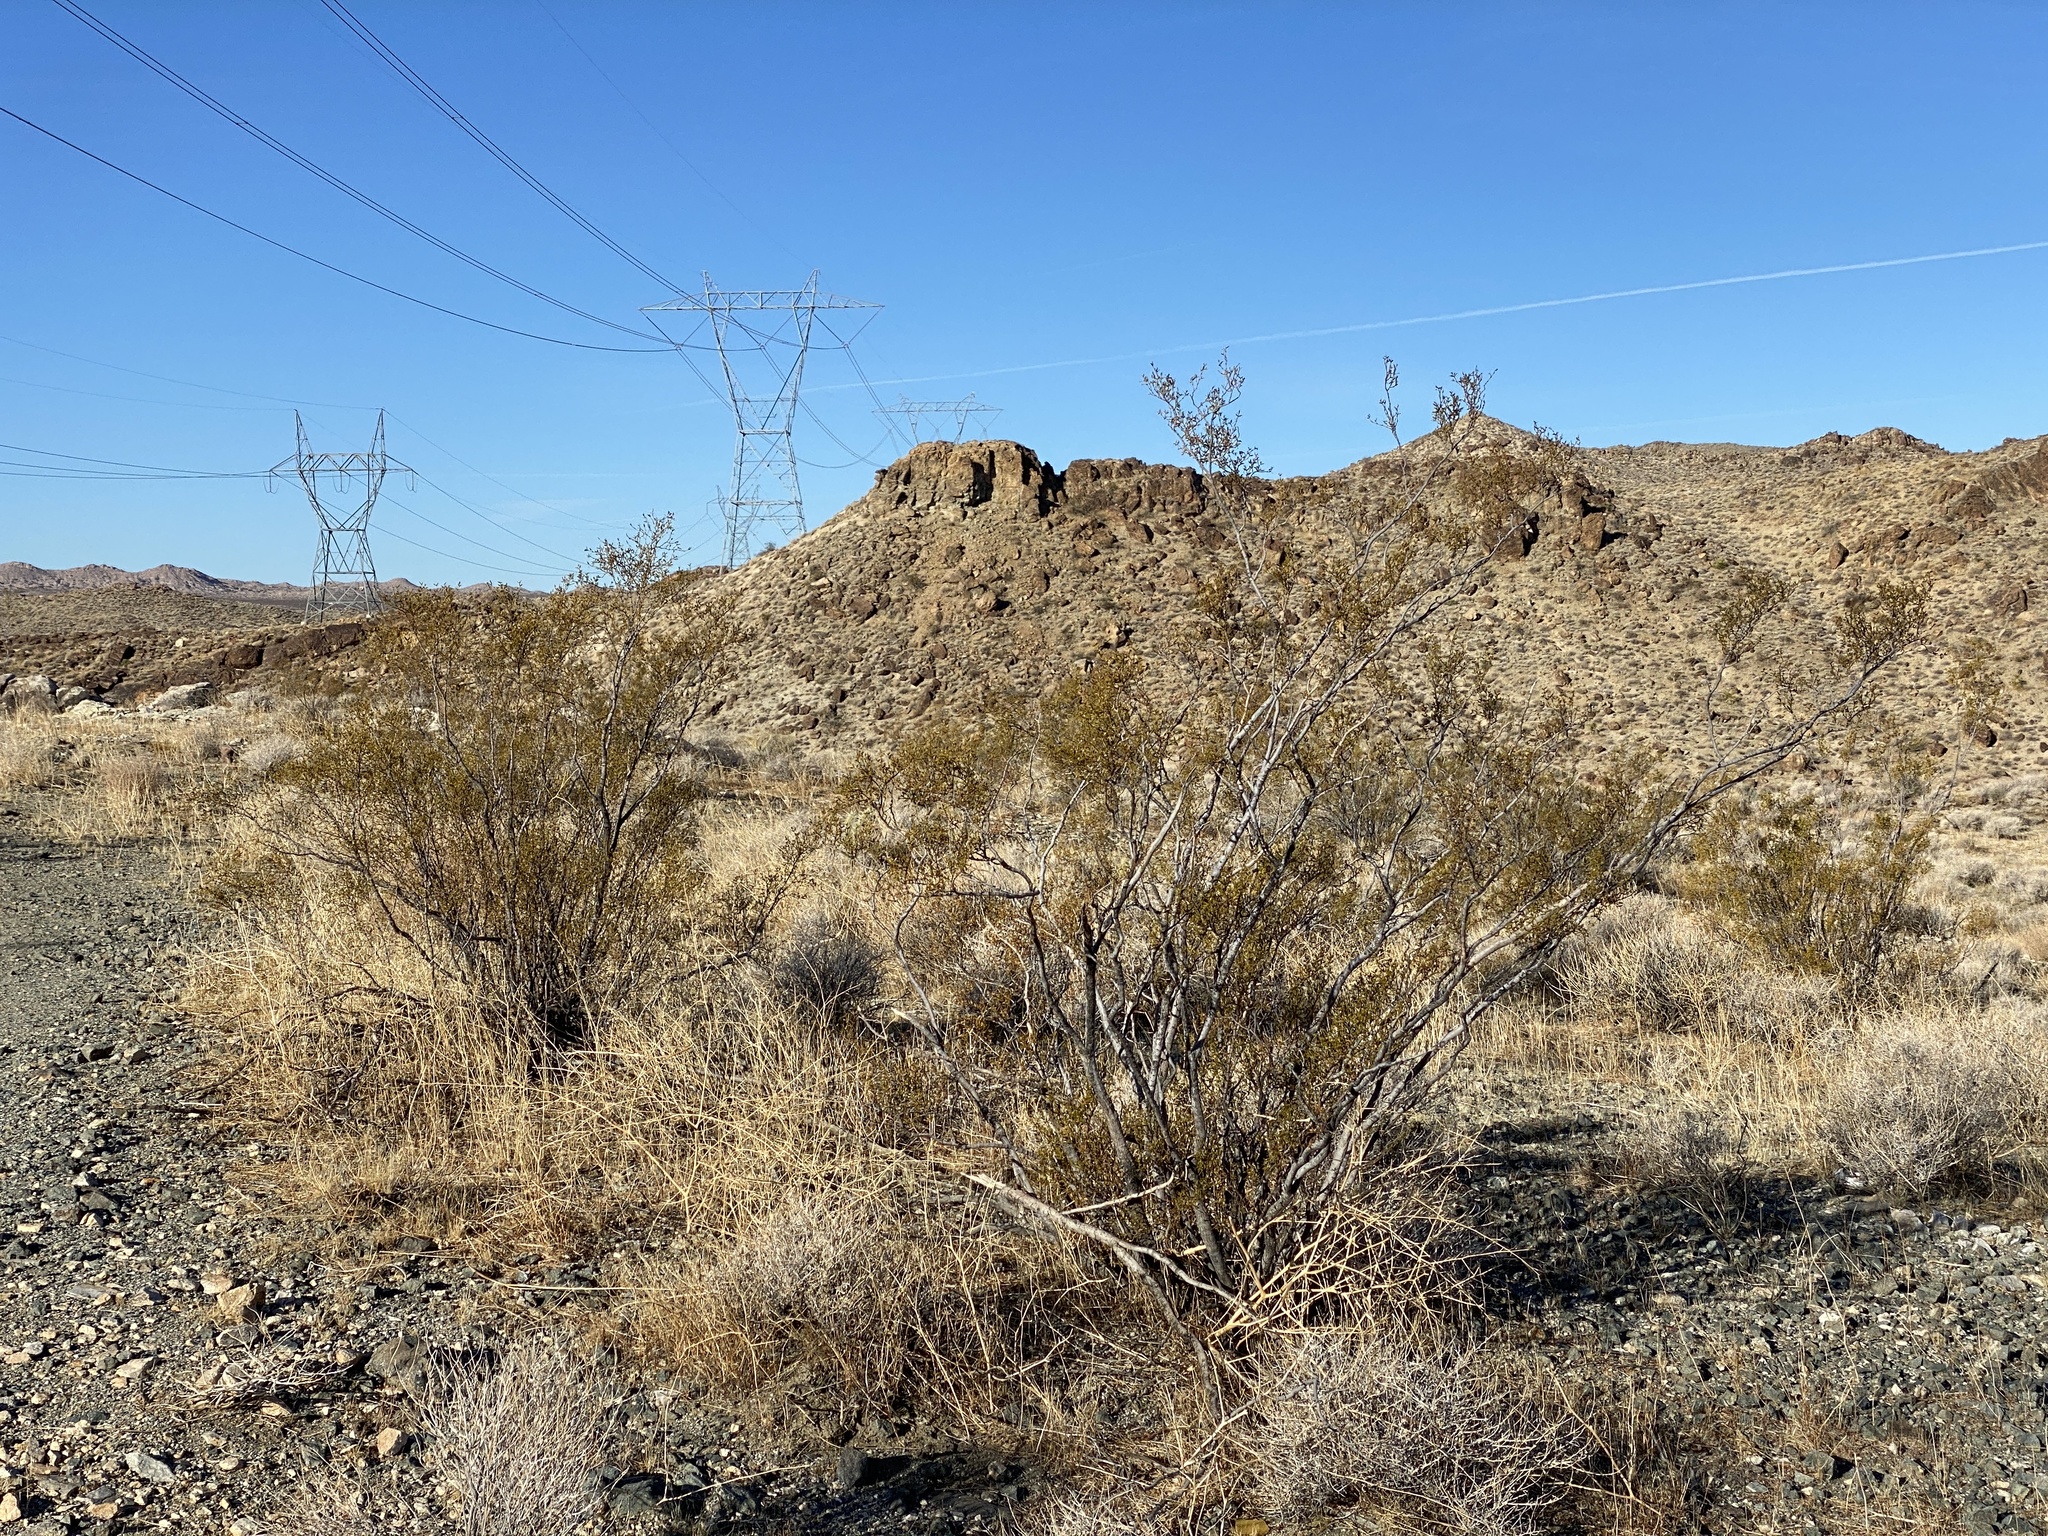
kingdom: Plantae
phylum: Tracheophyta
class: Magnoliopsida
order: Zygophyllales
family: Zygophyllaceae
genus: Larrea
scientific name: Larrea tridentata
